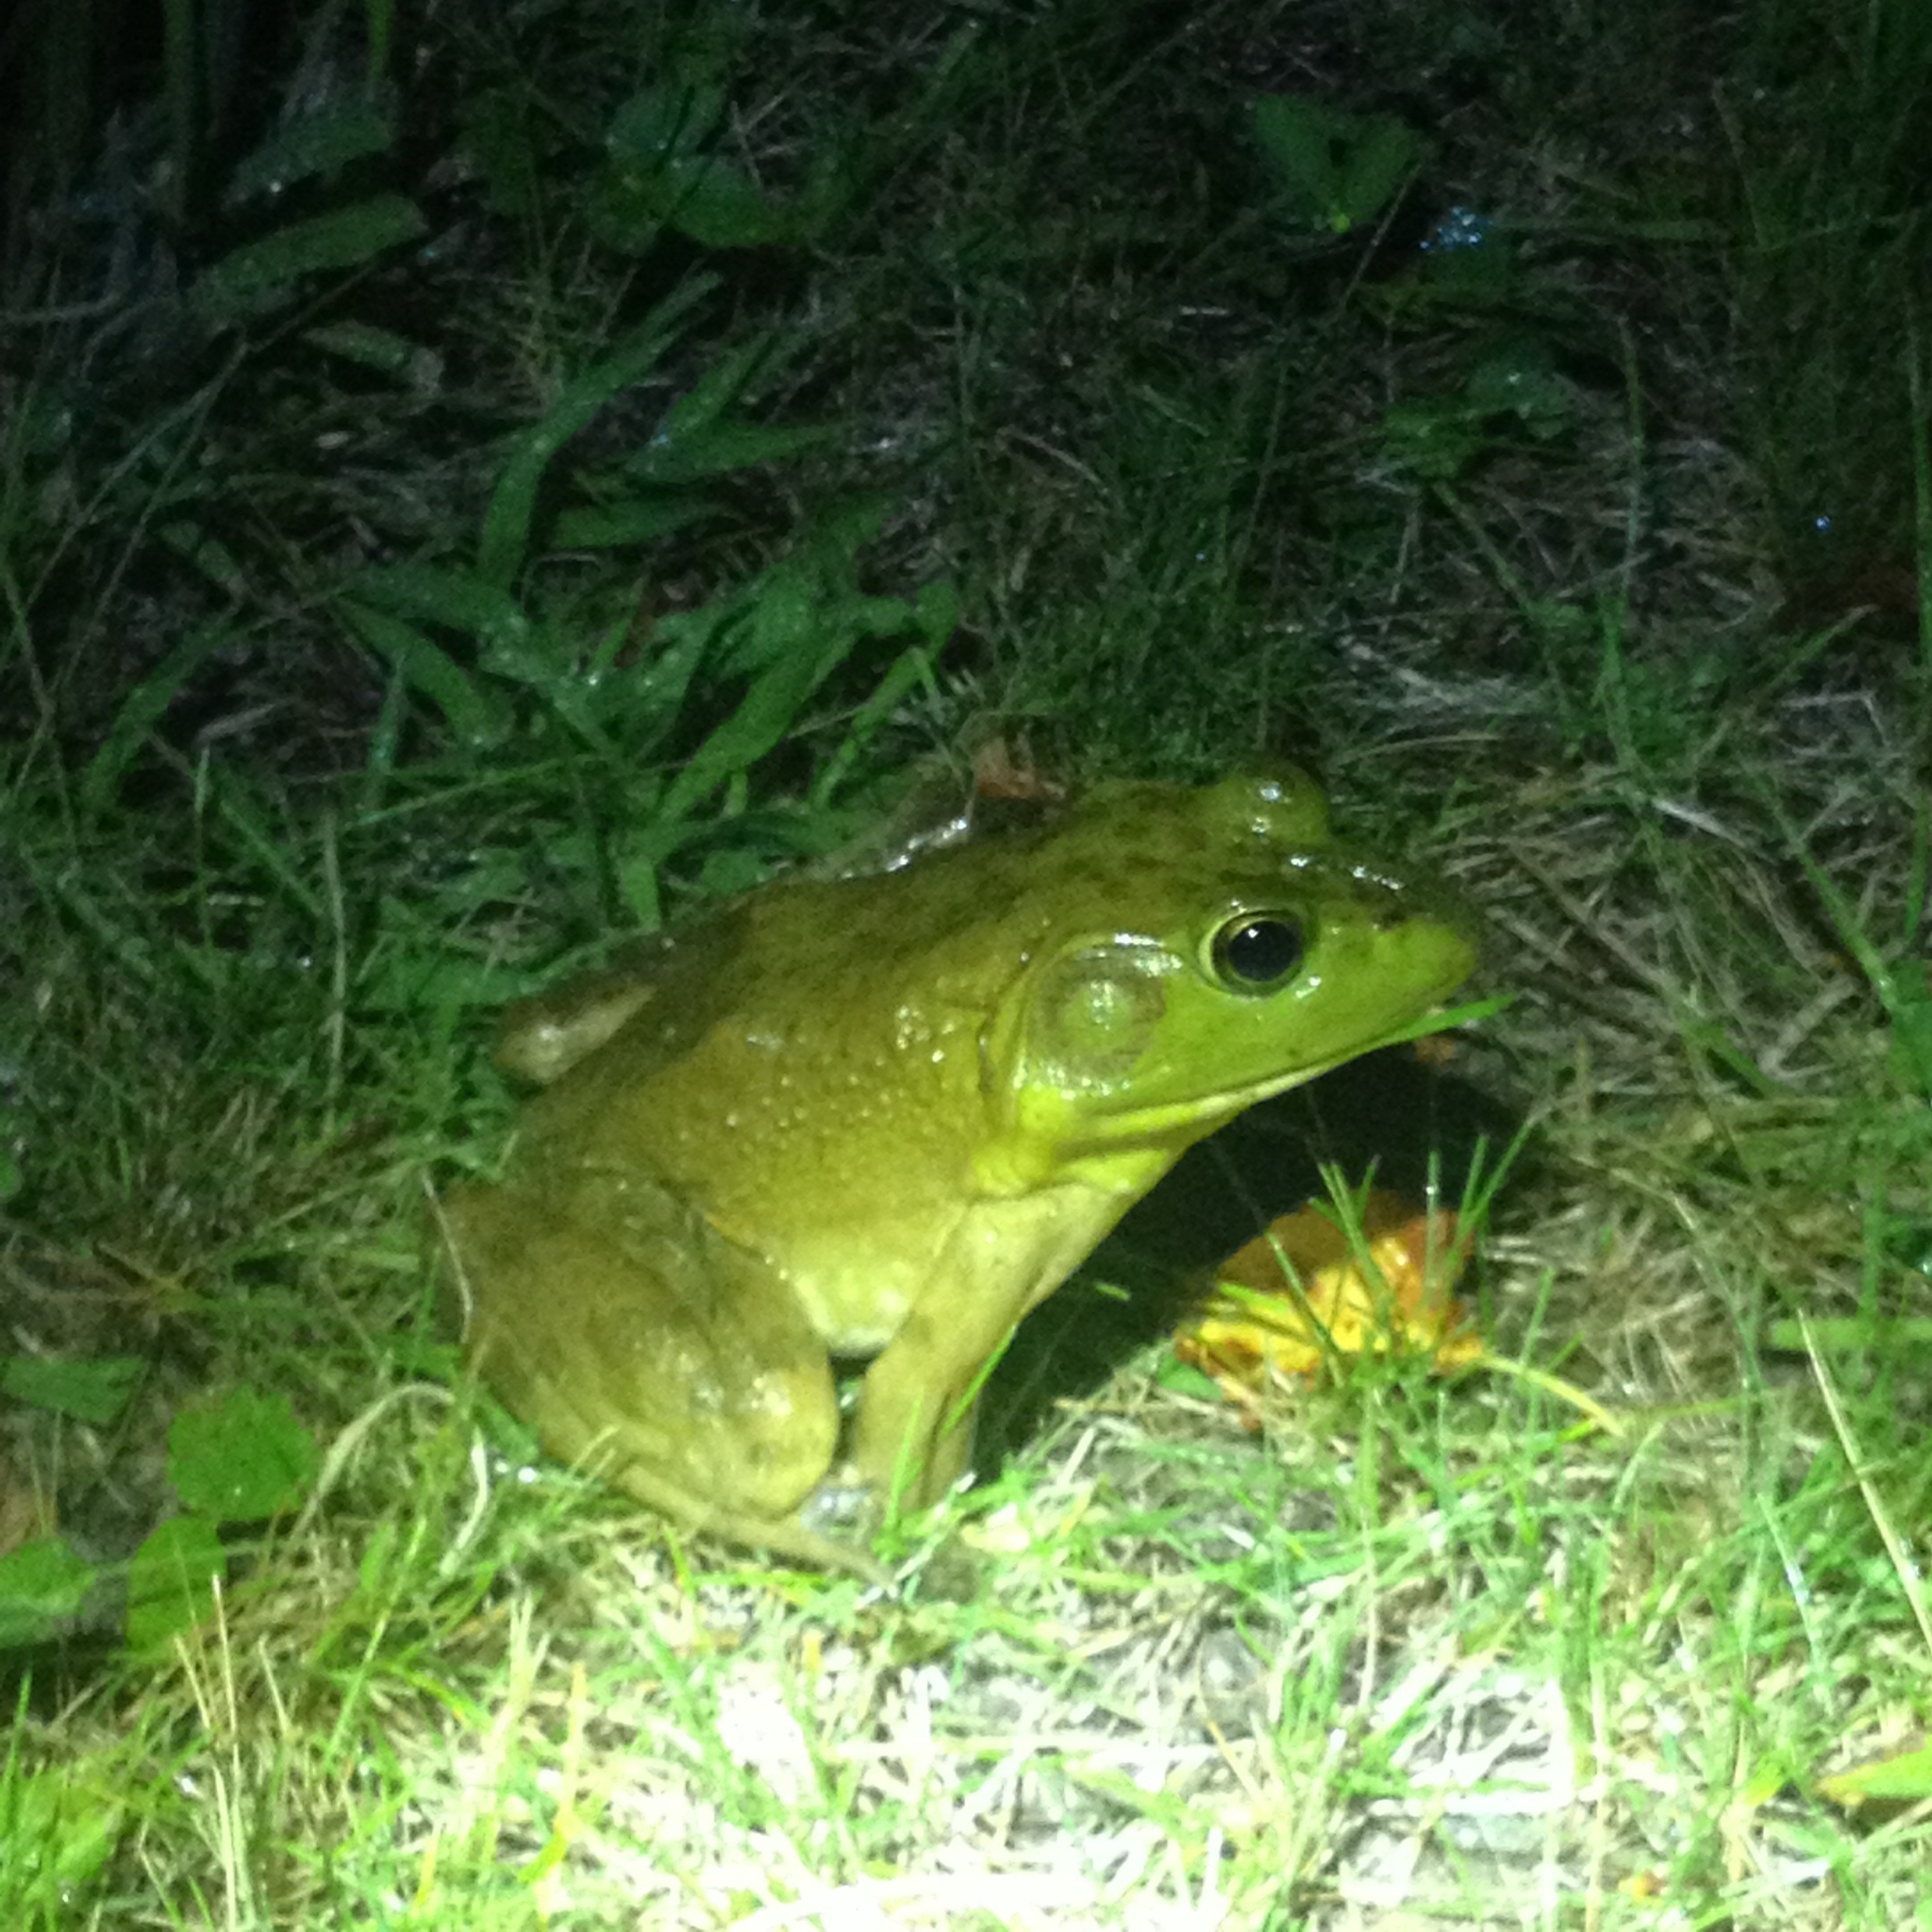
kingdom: Animalia
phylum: Chordata
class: Amphibia
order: Anura
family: Ranidae
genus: Lithobates
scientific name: Lithobates catesbeianus
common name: American bullfrog
